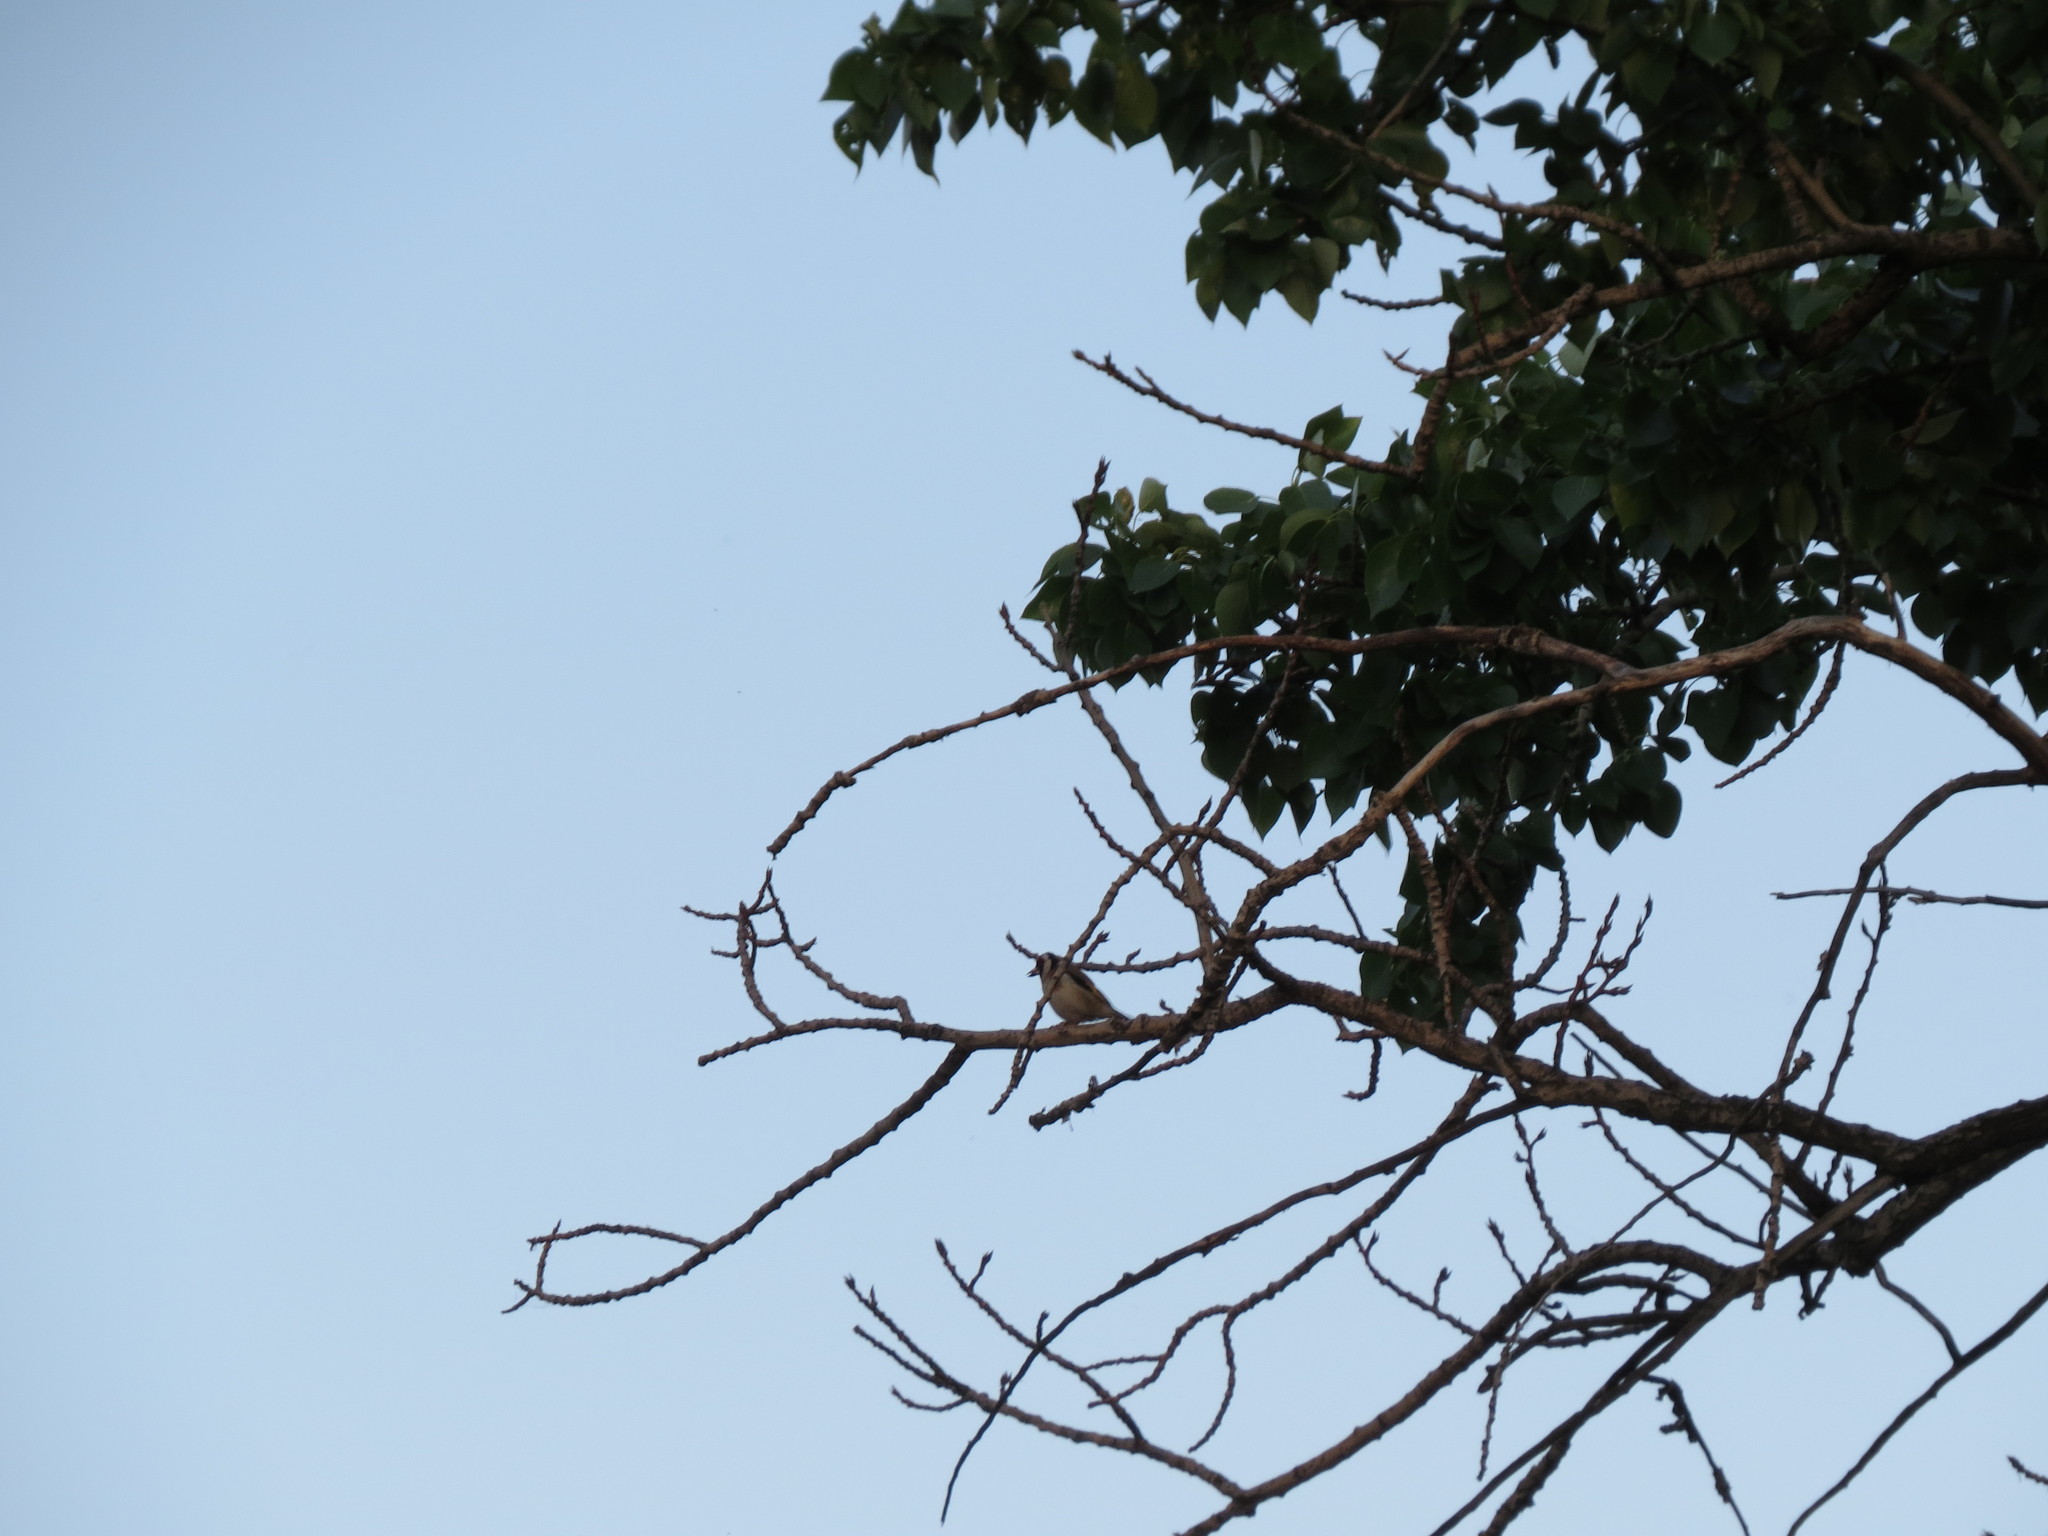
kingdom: Animalia
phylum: Chordata
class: Aves
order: Passeriformes
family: Fringillidae
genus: Carduelis
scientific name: Carduelis carduelis
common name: European goldfinch
